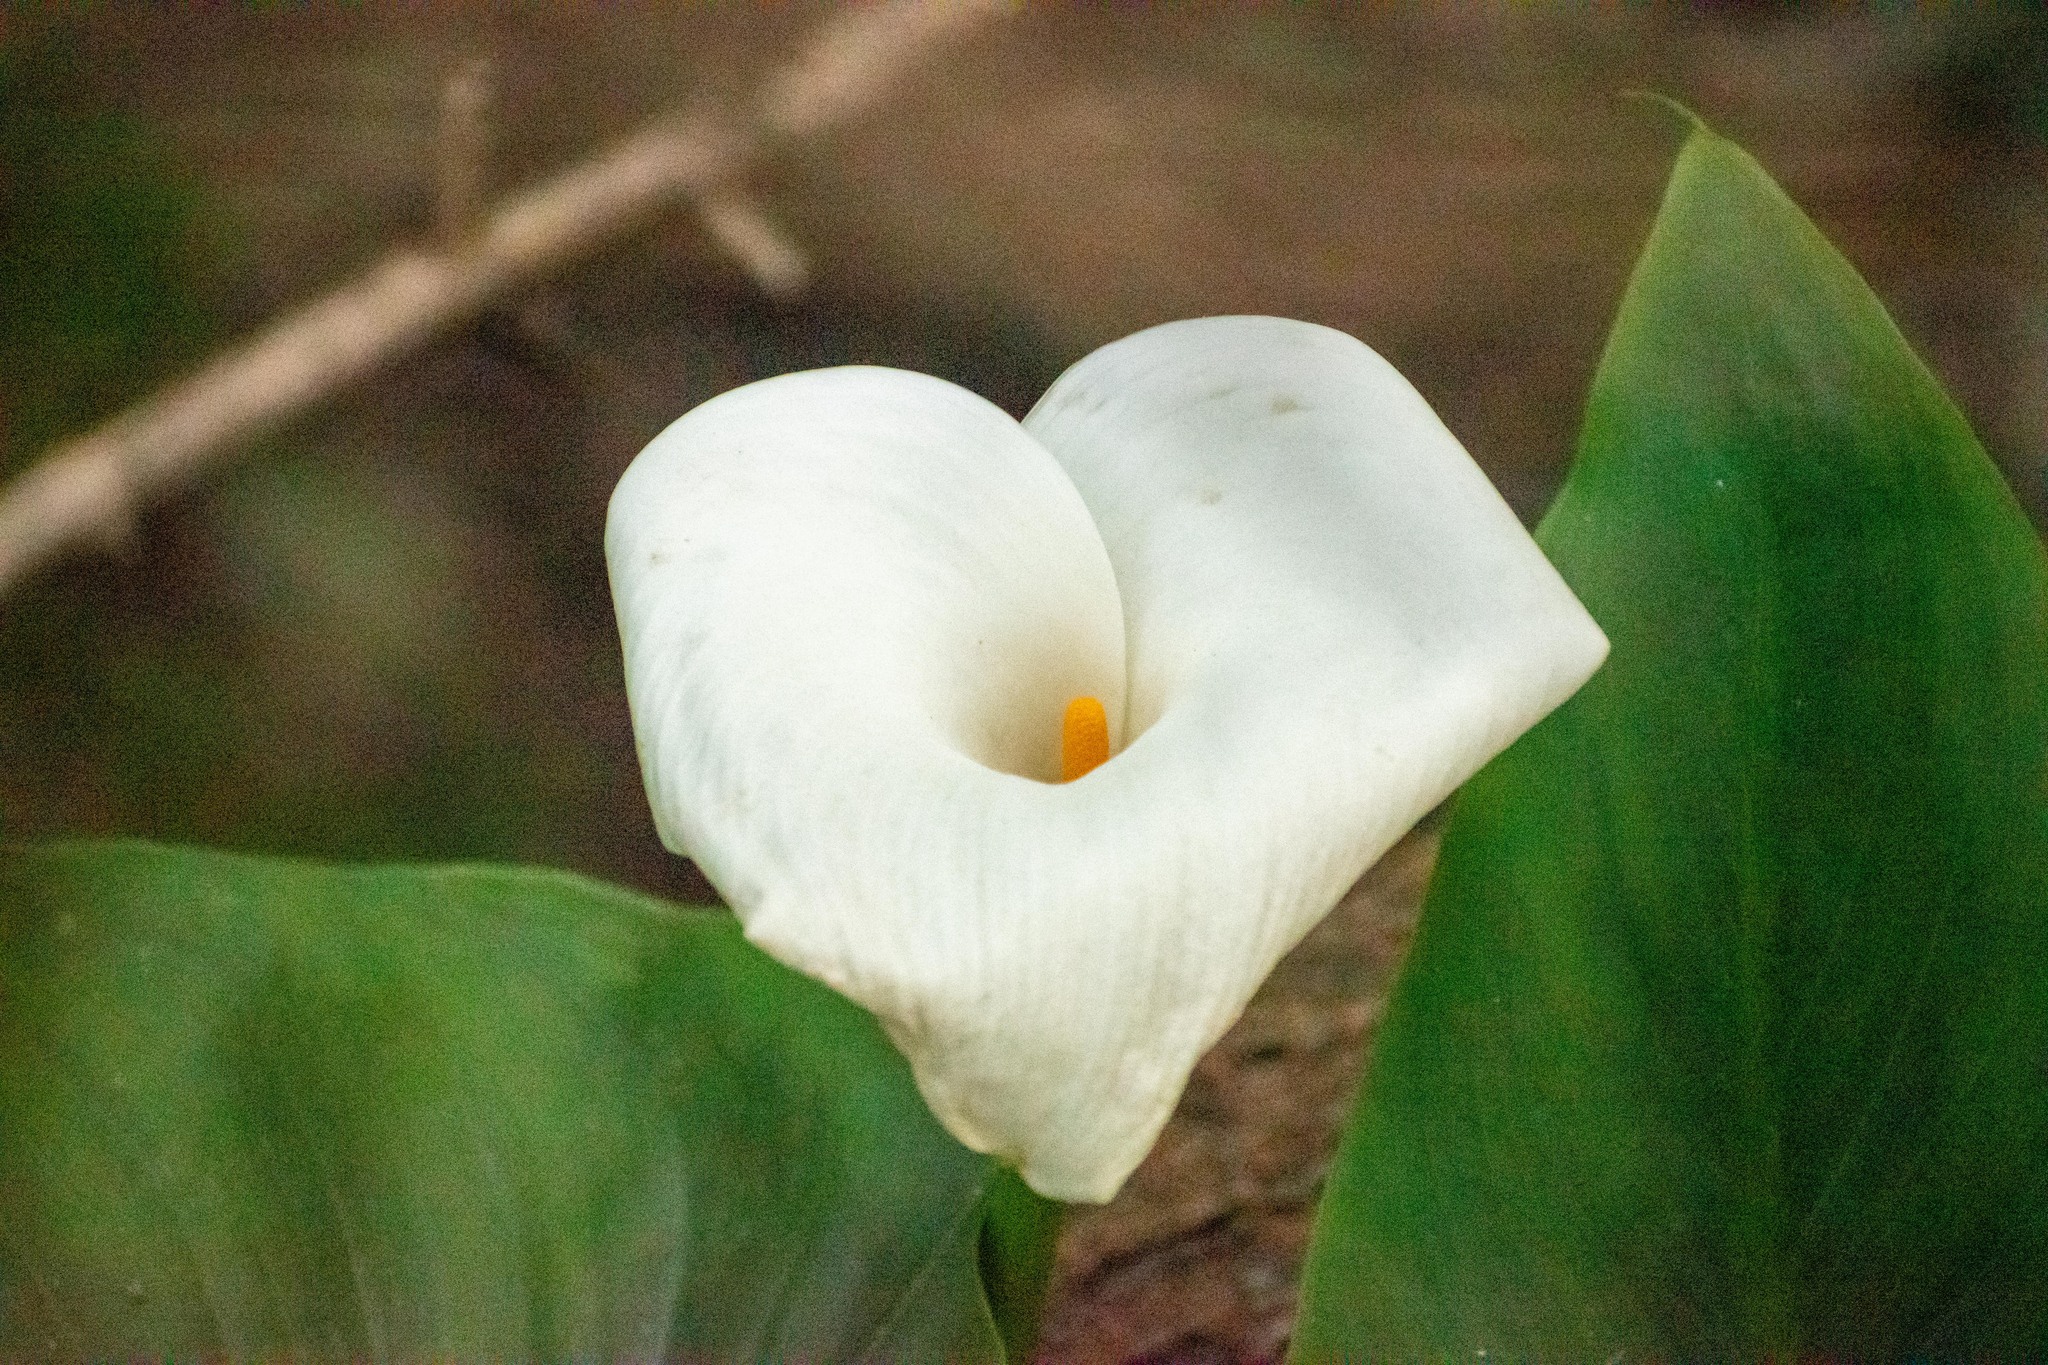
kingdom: Plantae
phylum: Tracheophyta
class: Liliopsida
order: Alismatales
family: Araceae
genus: Zantedeschia
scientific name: Zantedeschia aethiopica
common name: Altar-lily
